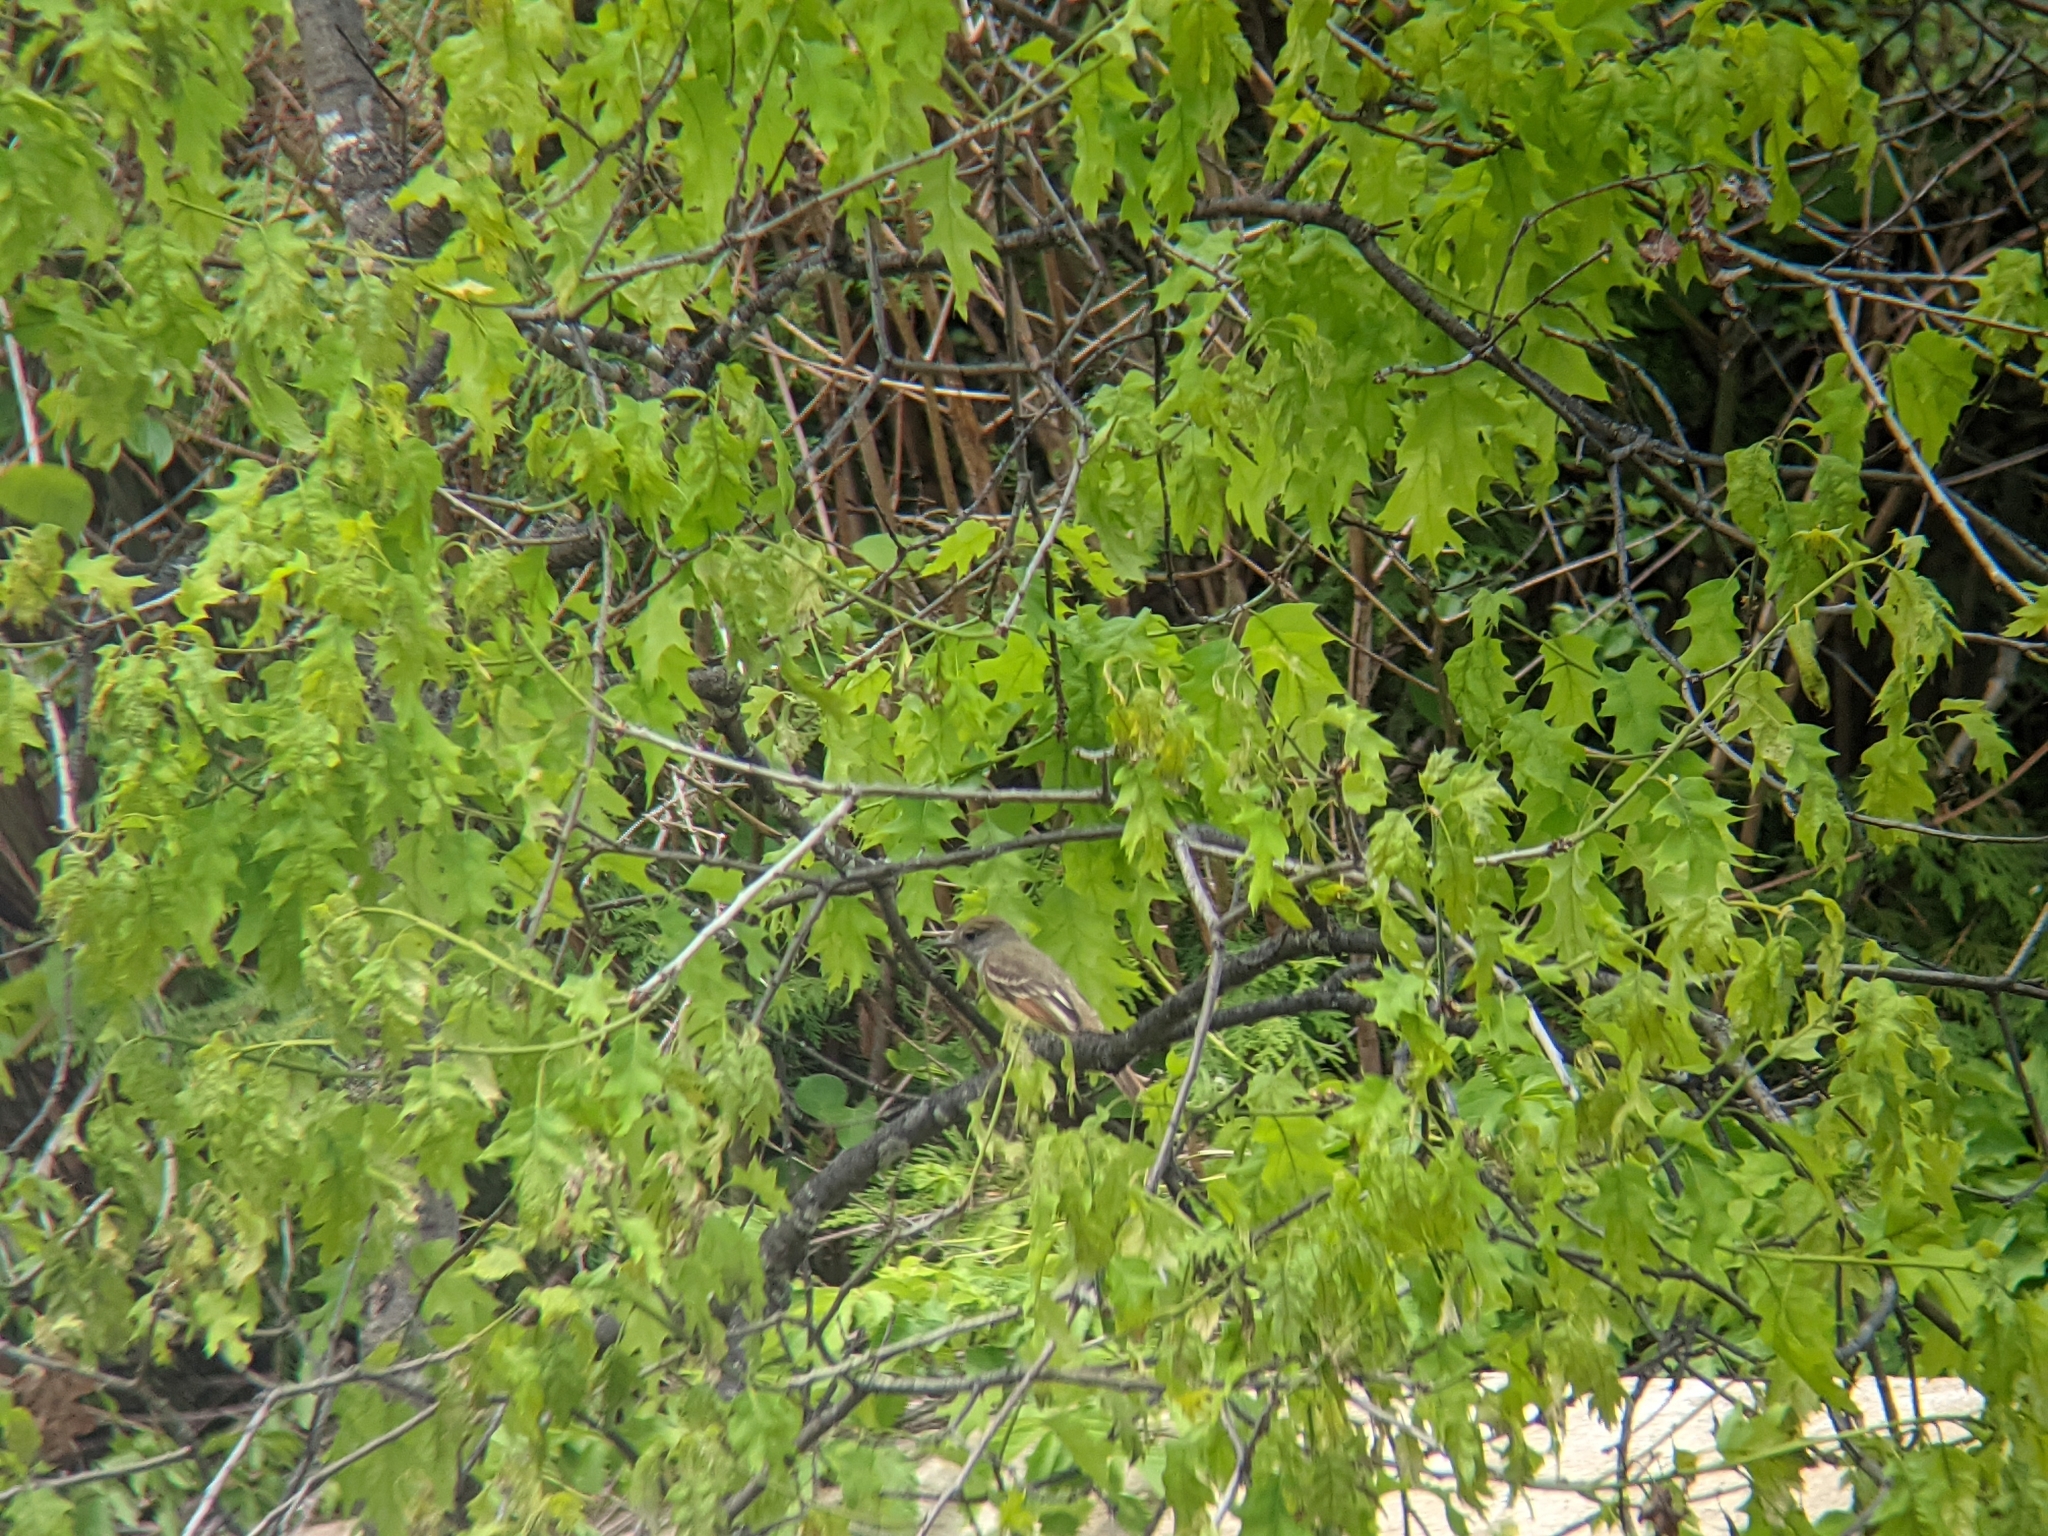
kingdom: Animalia
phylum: Chordata
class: Aves
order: Passeriformes
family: Tyrannidae
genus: Myiarchus
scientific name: Myiarchus crinitus
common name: Great crested flycatcher
